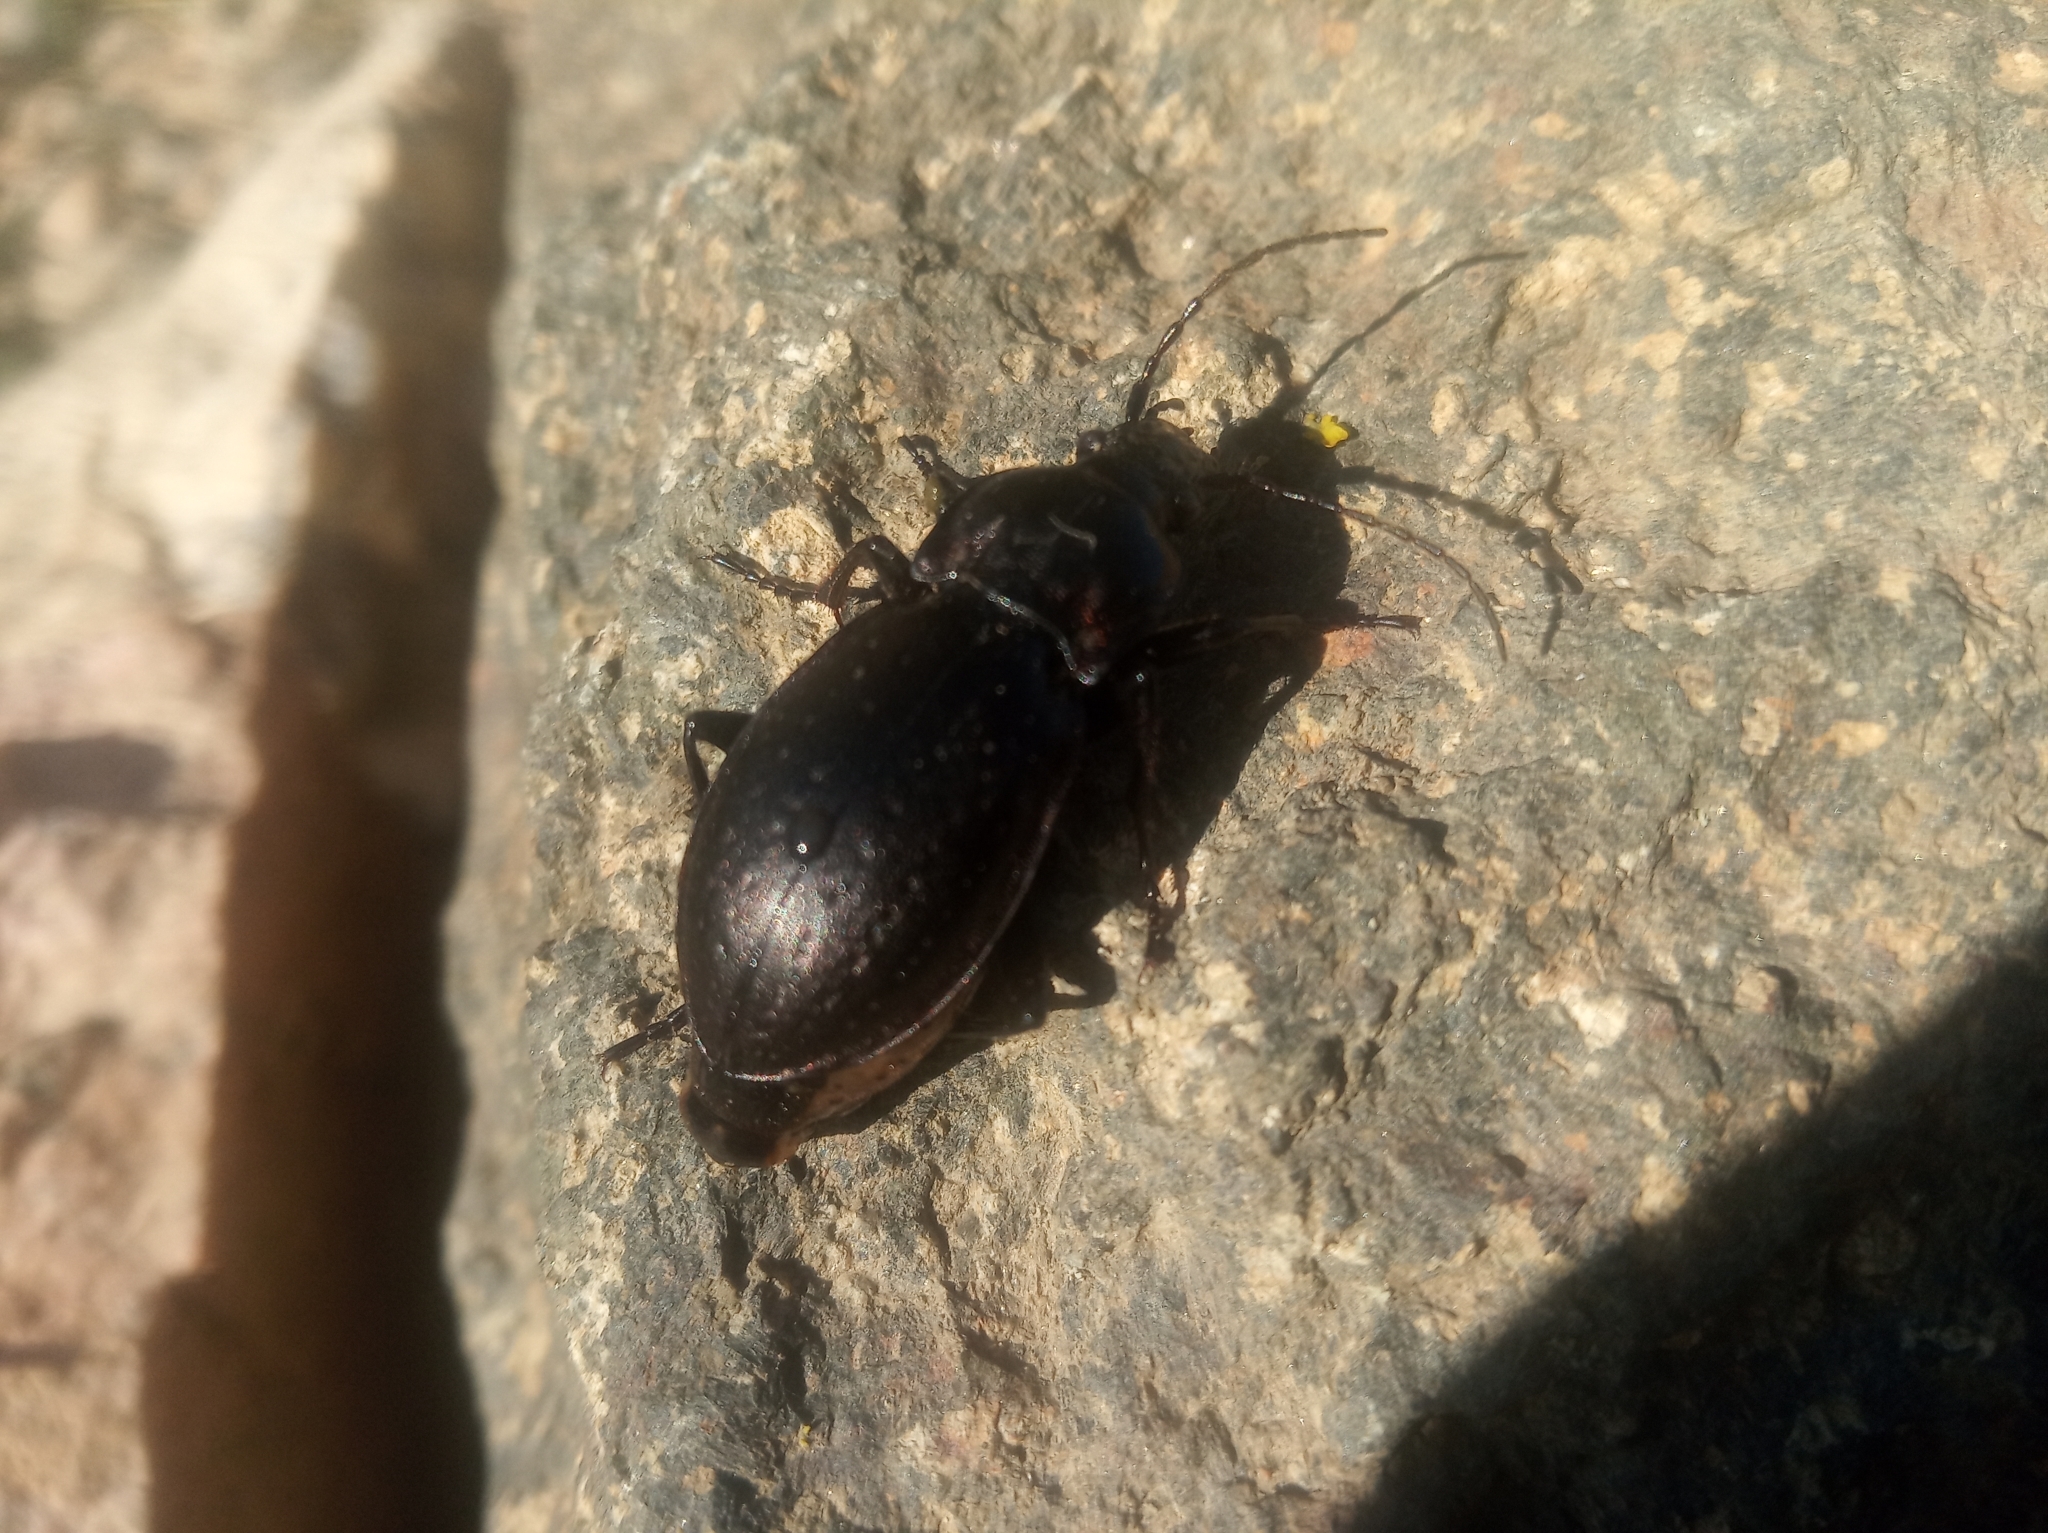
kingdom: Animalia
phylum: Arthropoda
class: Insecta
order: Coleoptera
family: Carabidae
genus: Carabus
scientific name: Carabus nemoralis
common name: European ground beetle
